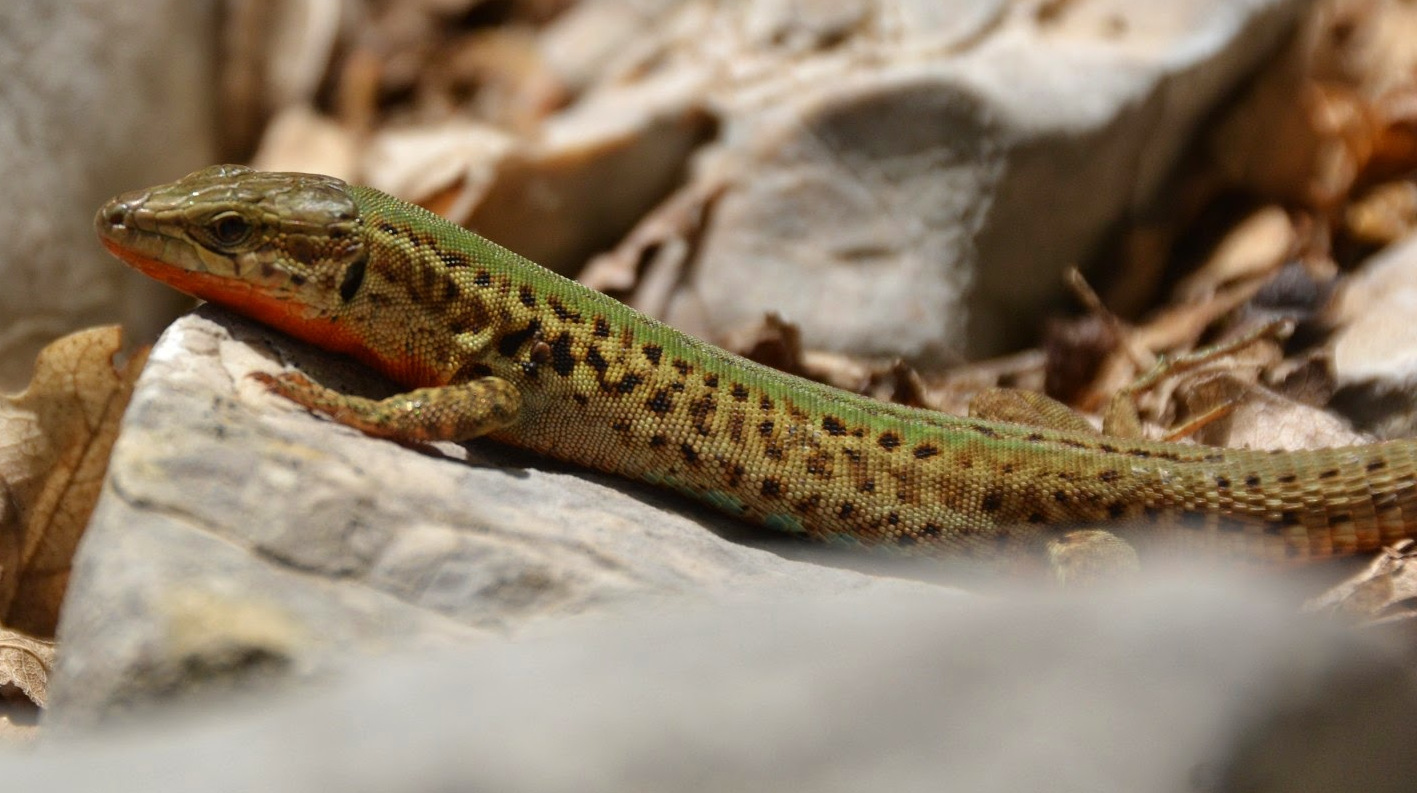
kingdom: Animalia
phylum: Chordata
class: Squamata
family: Lacertidae
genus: Podarcis
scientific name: Podarcis melisellensis
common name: Dalmatian wall lizard
